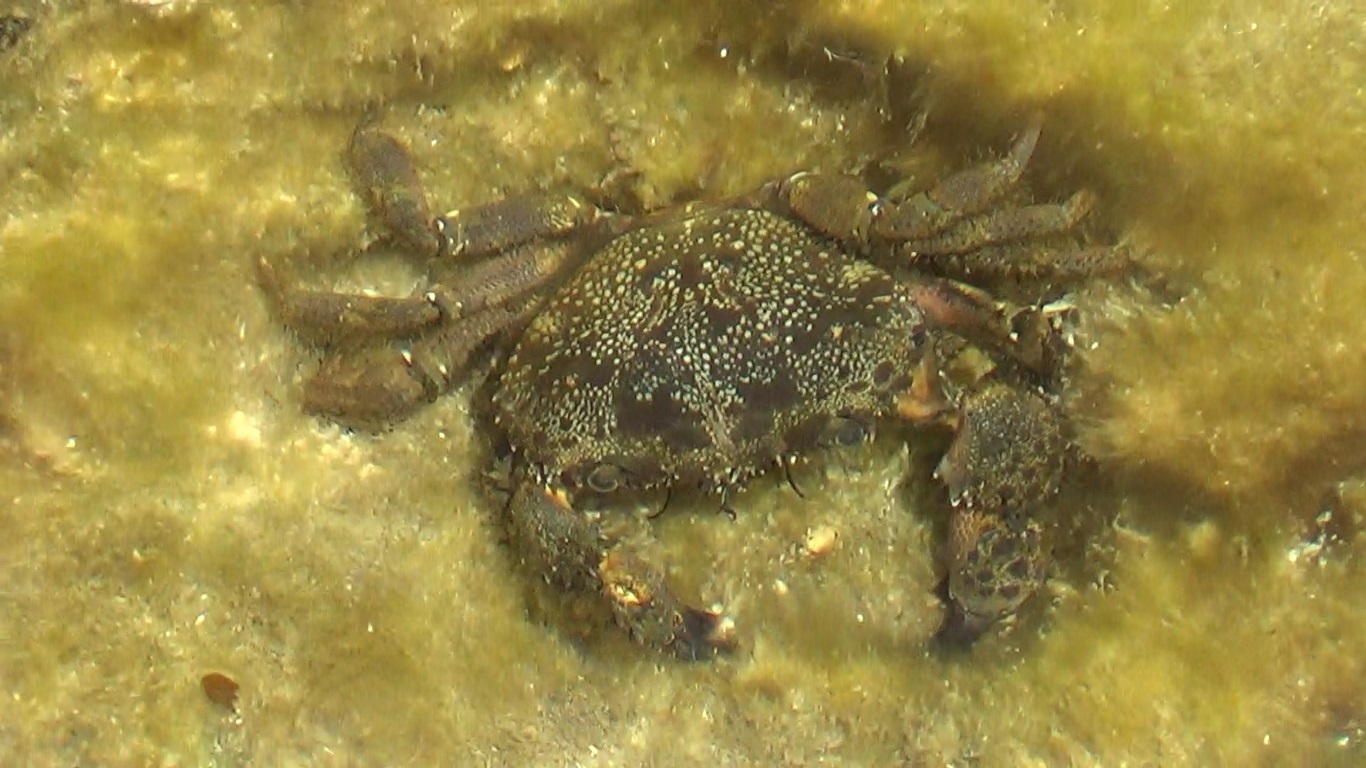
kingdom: Animalia
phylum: Arthropoda
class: Malacostraca
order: Decapoda
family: Eriphiidae
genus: Eriphia
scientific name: Eriphia verrucosa
